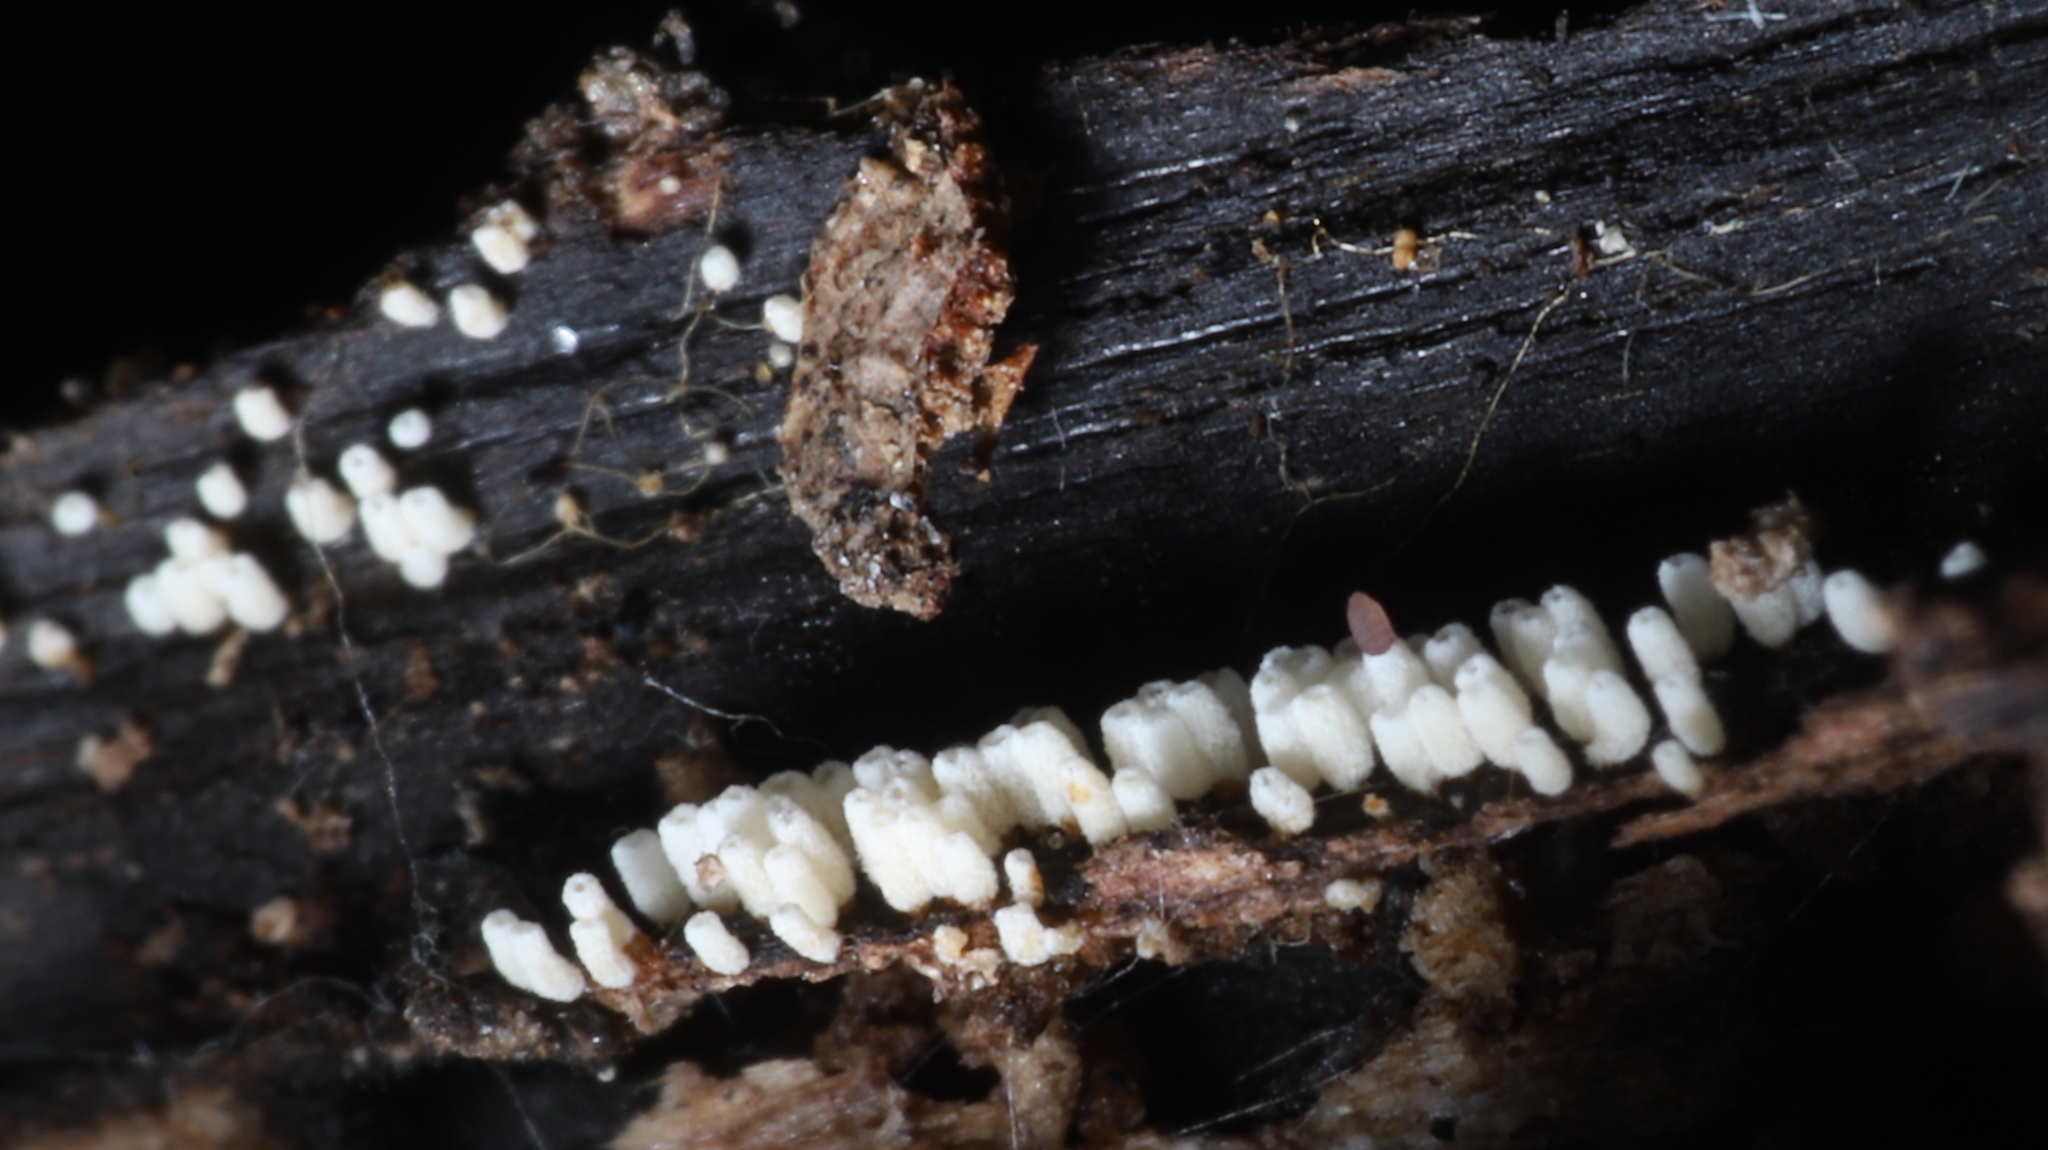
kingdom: Fungi
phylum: Basidiomycota
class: Agaricomycetes
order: Agaricales
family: Marasmiaceae
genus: Henningsomyces
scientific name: Henningsomyces candidus
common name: White tubelet
